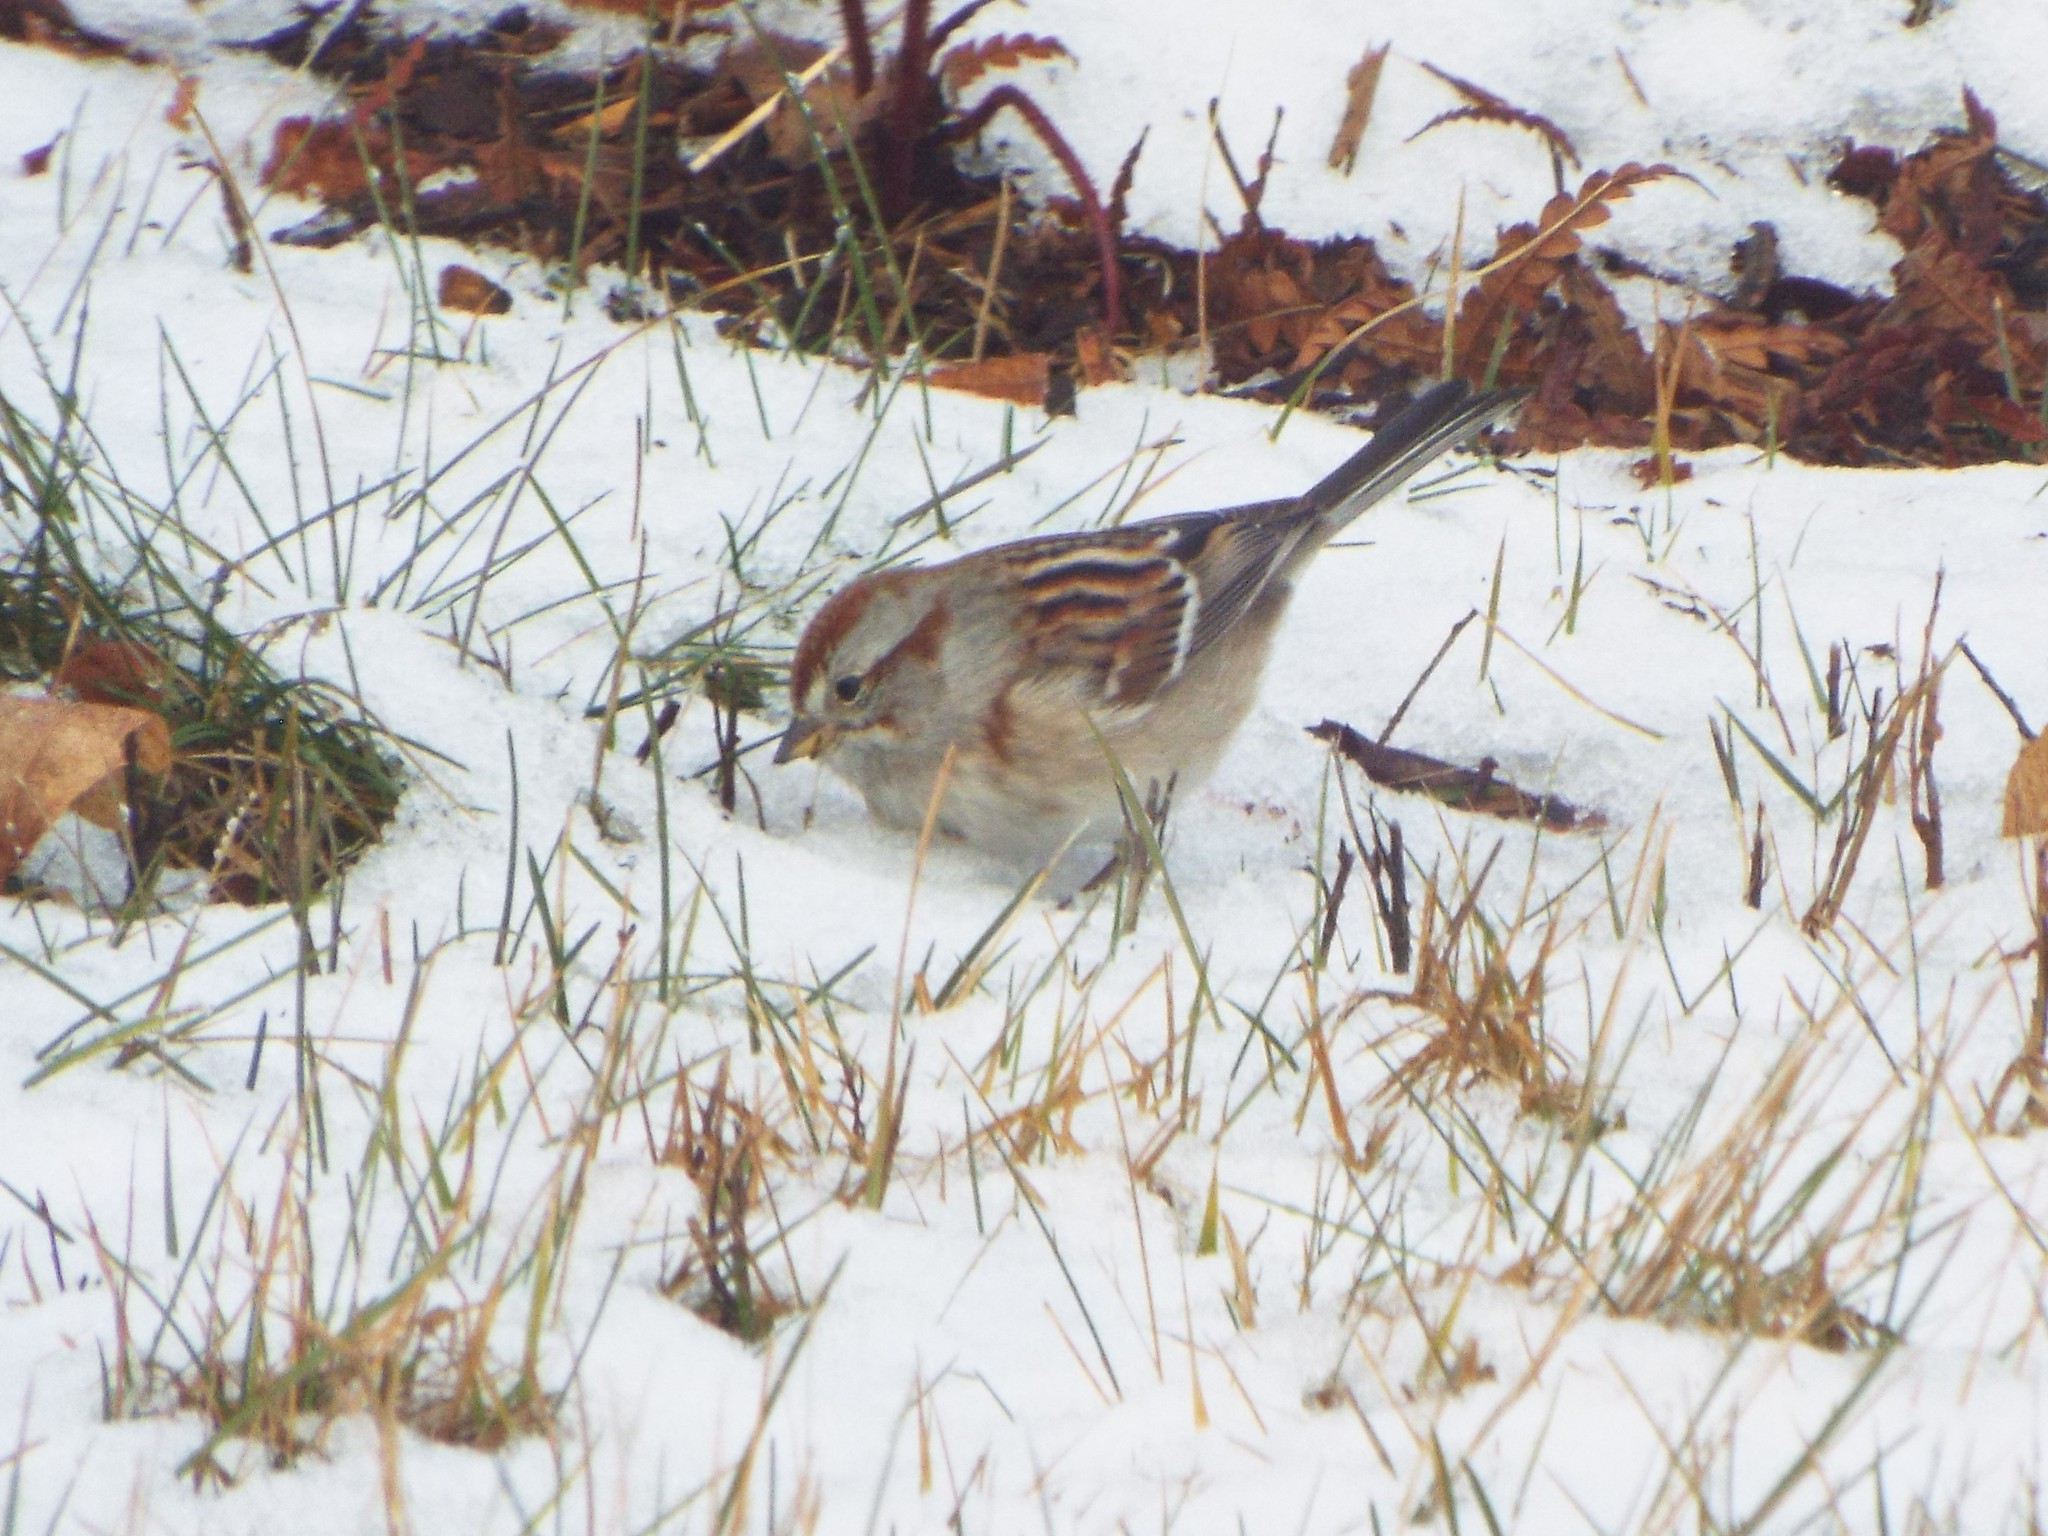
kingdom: Animalia
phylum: Chordata
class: Aves
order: Passeriformes
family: Passerellidae
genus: Spizelloides
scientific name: Spizelloides arborea
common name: American tree sparrow
